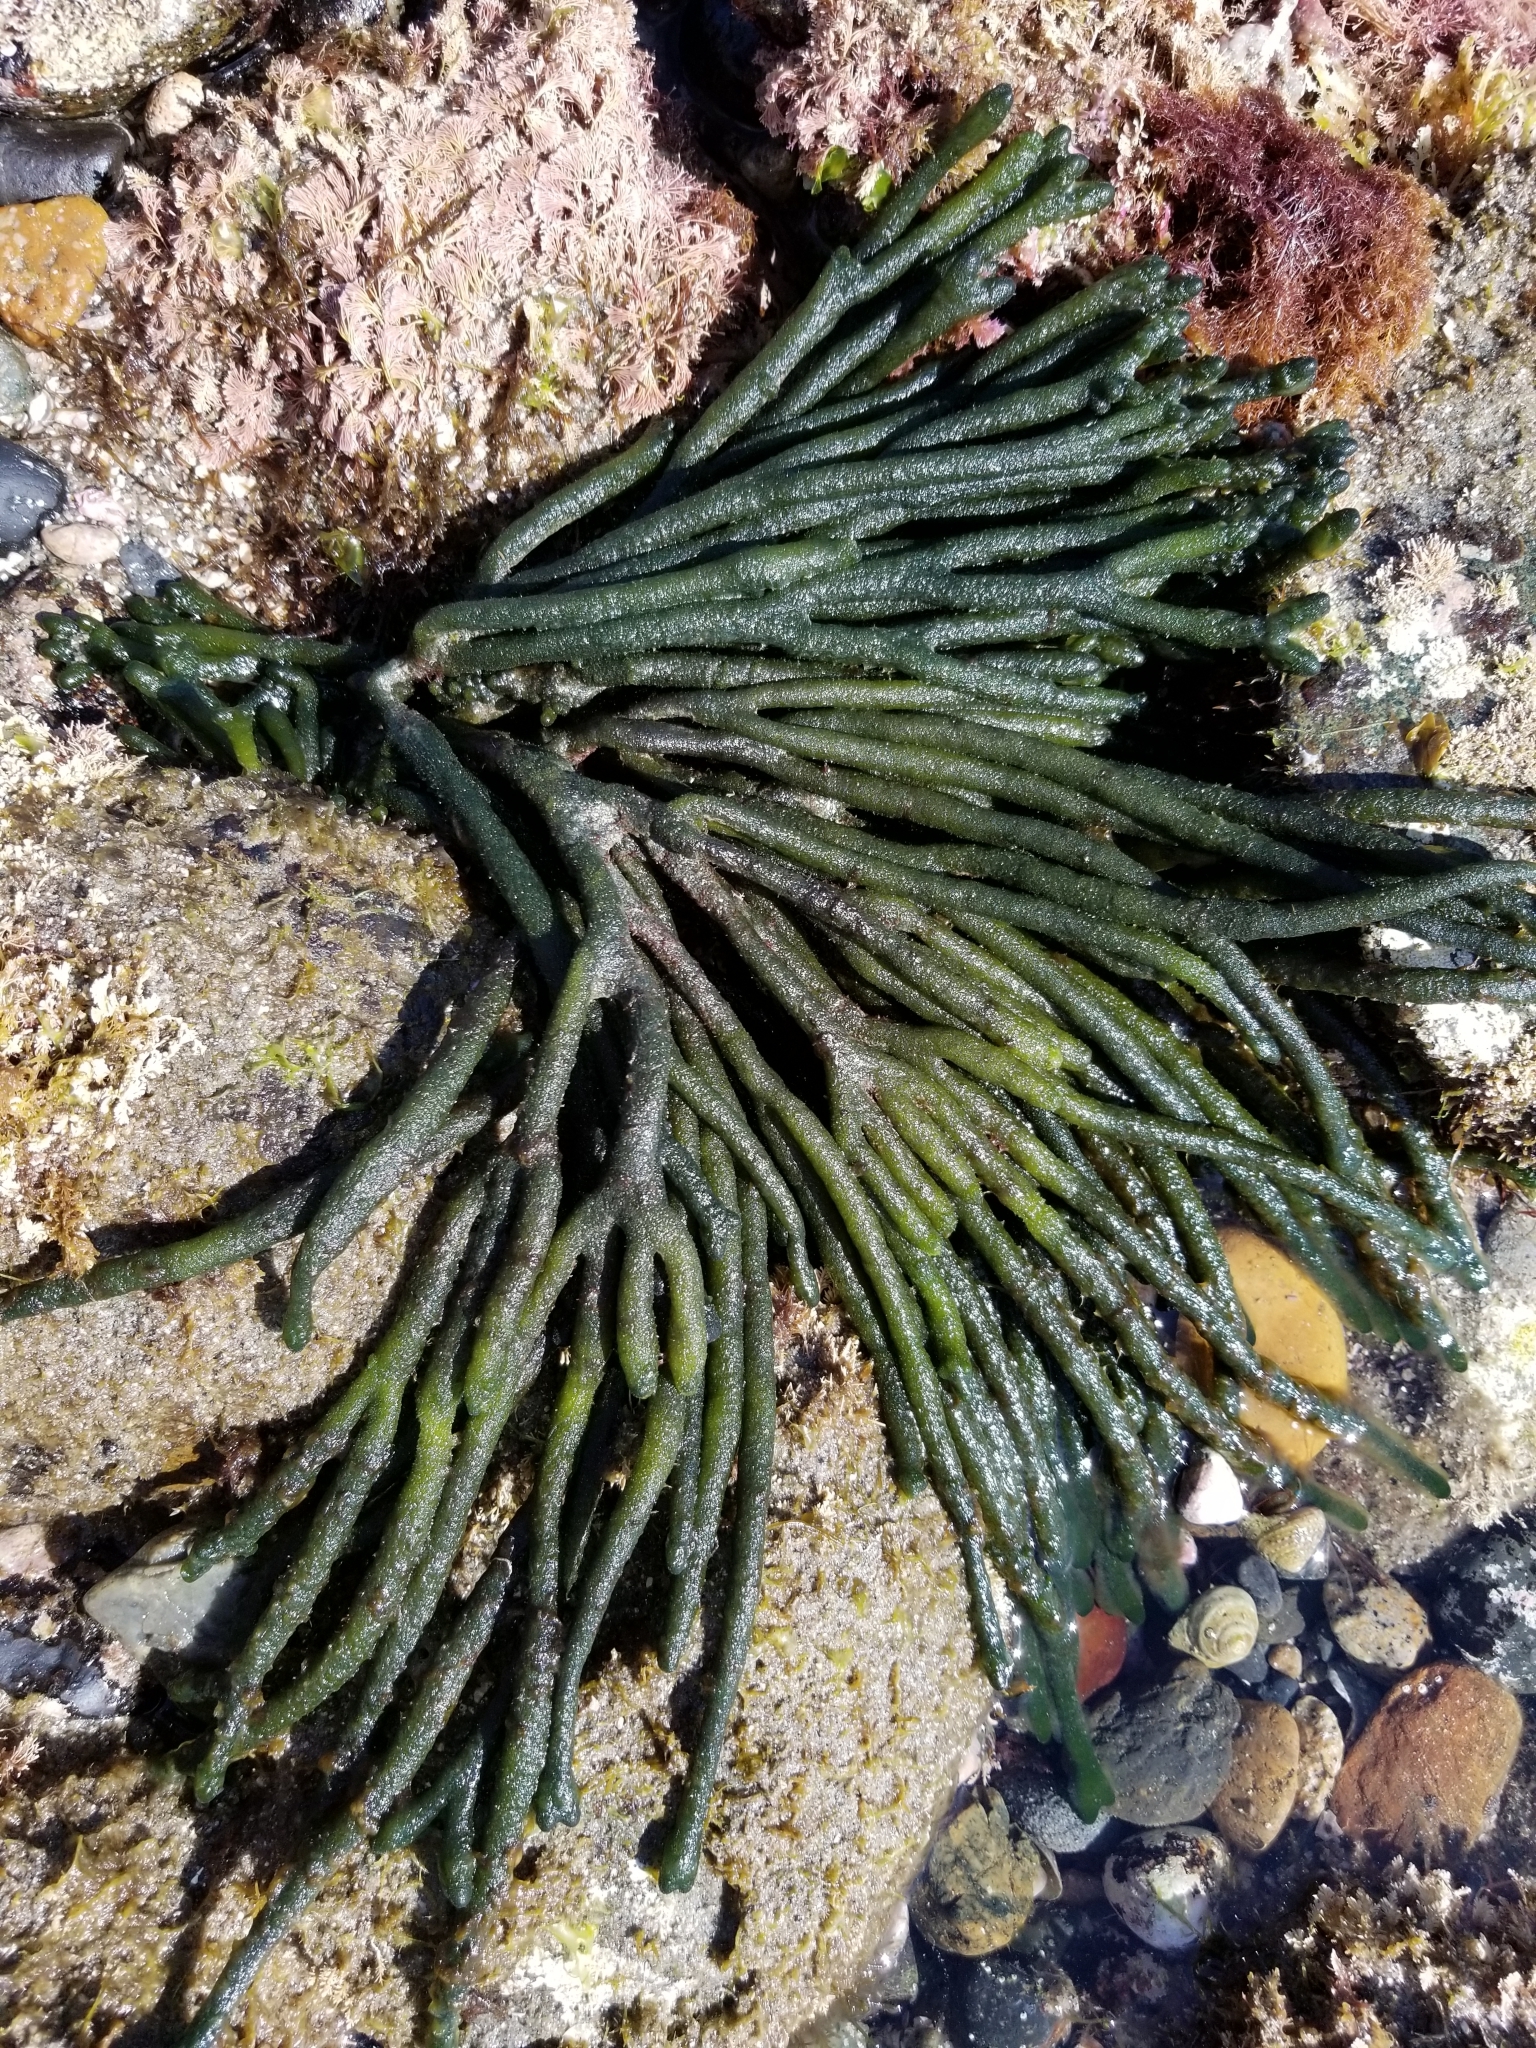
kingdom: Plantae
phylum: Chlorophyta
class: Ulvophyceae
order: Bryopsidales
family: Codiaceae
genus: Codium
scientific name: Codium fragile
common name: Dead man's fingers
